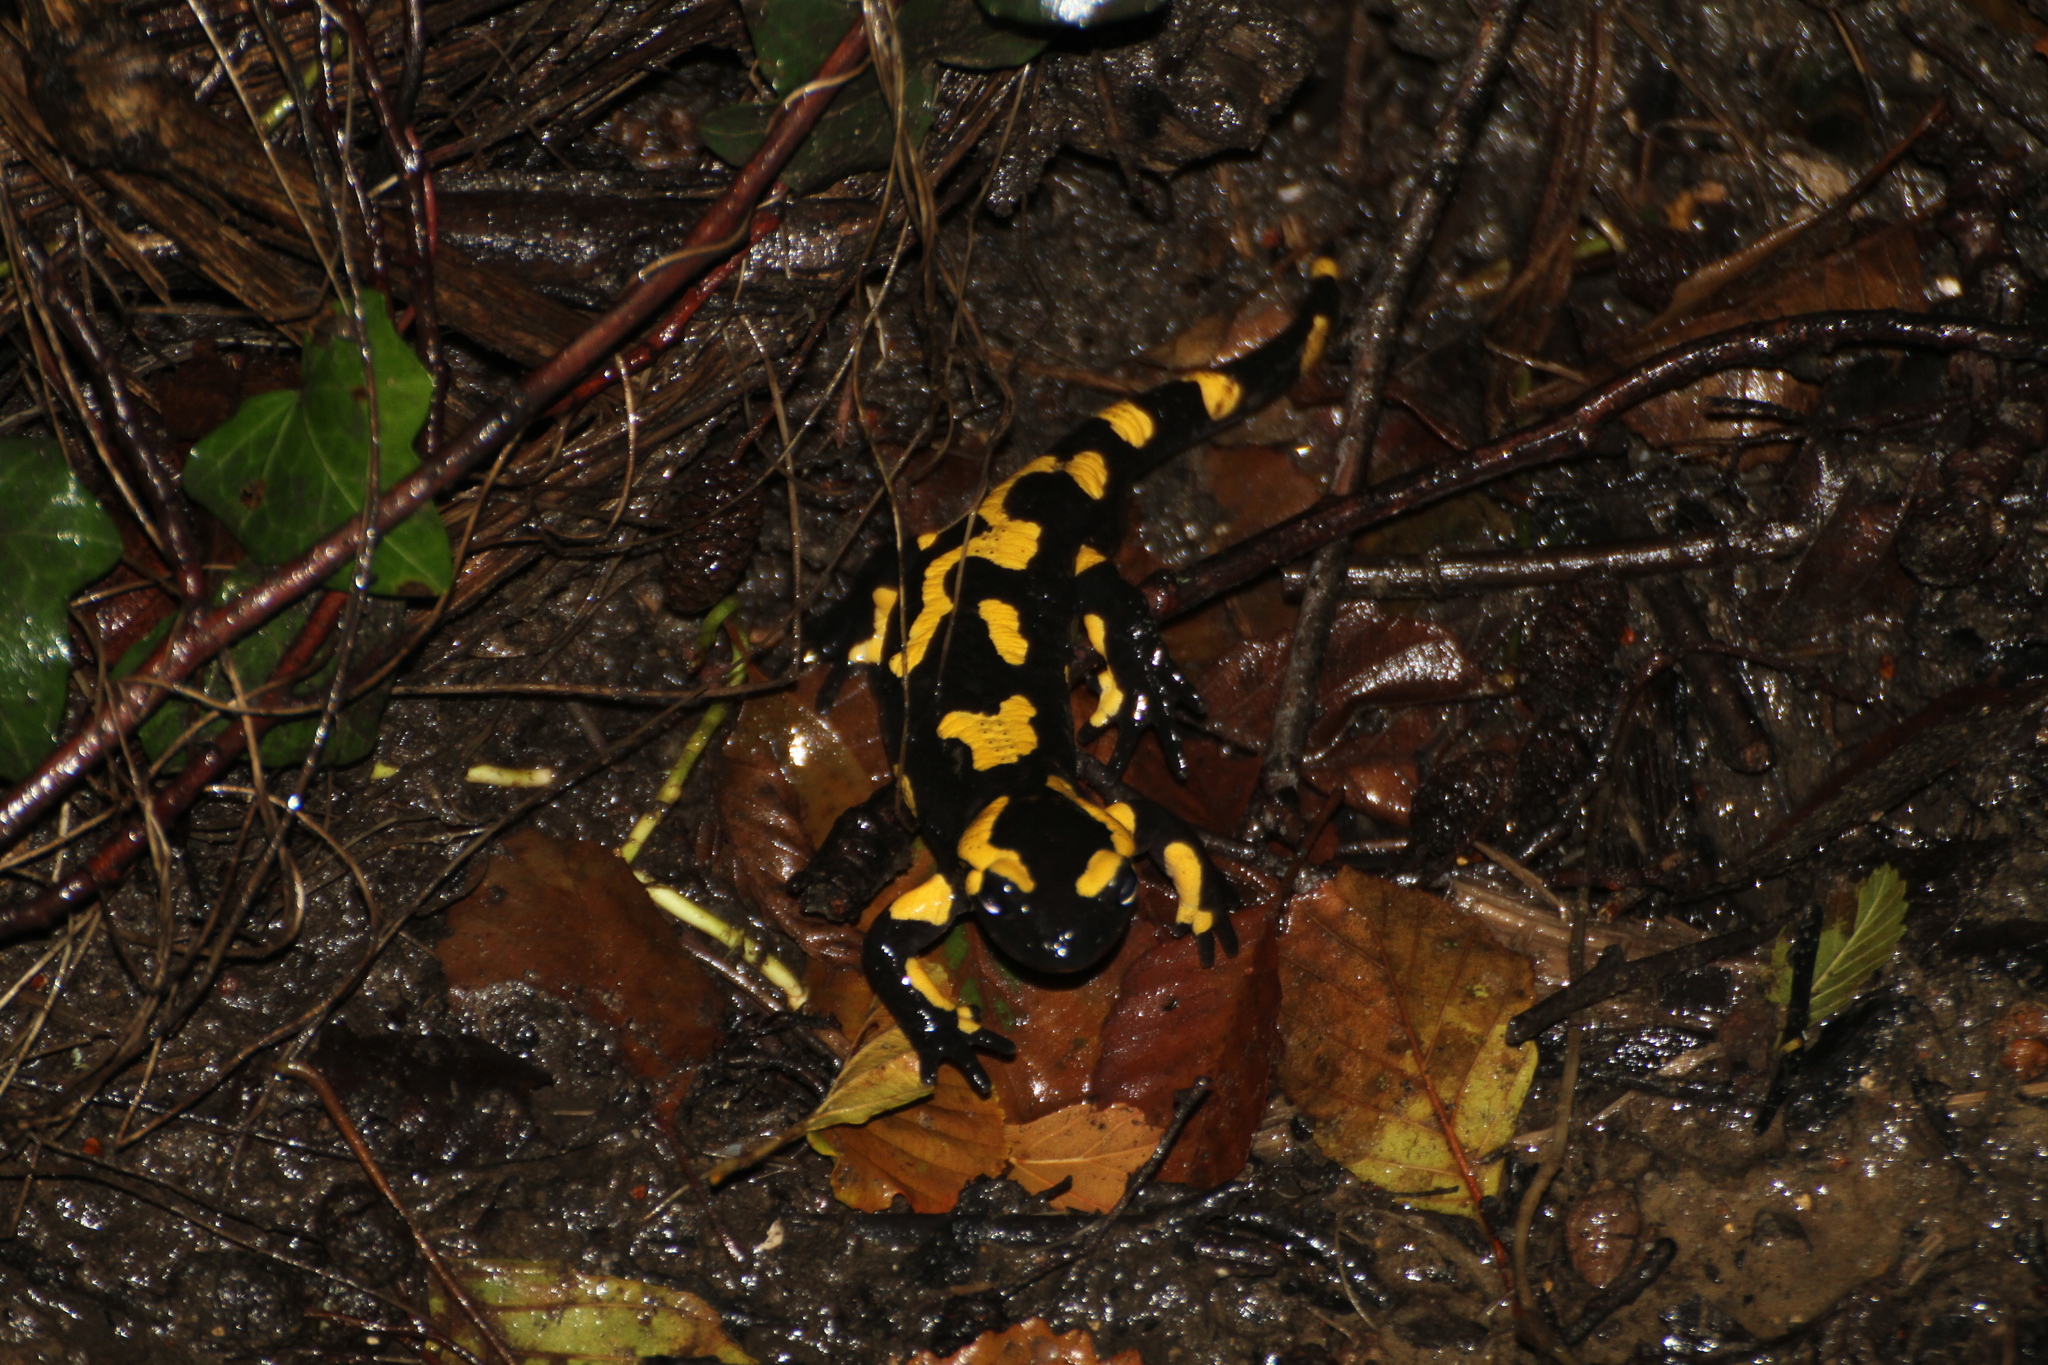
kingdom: Animalia
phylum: Chordata
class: Amphibia
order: Caudata
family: Salamandridae
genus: Salamandra
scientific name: Salamandra salamandra
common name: Fire salamander
